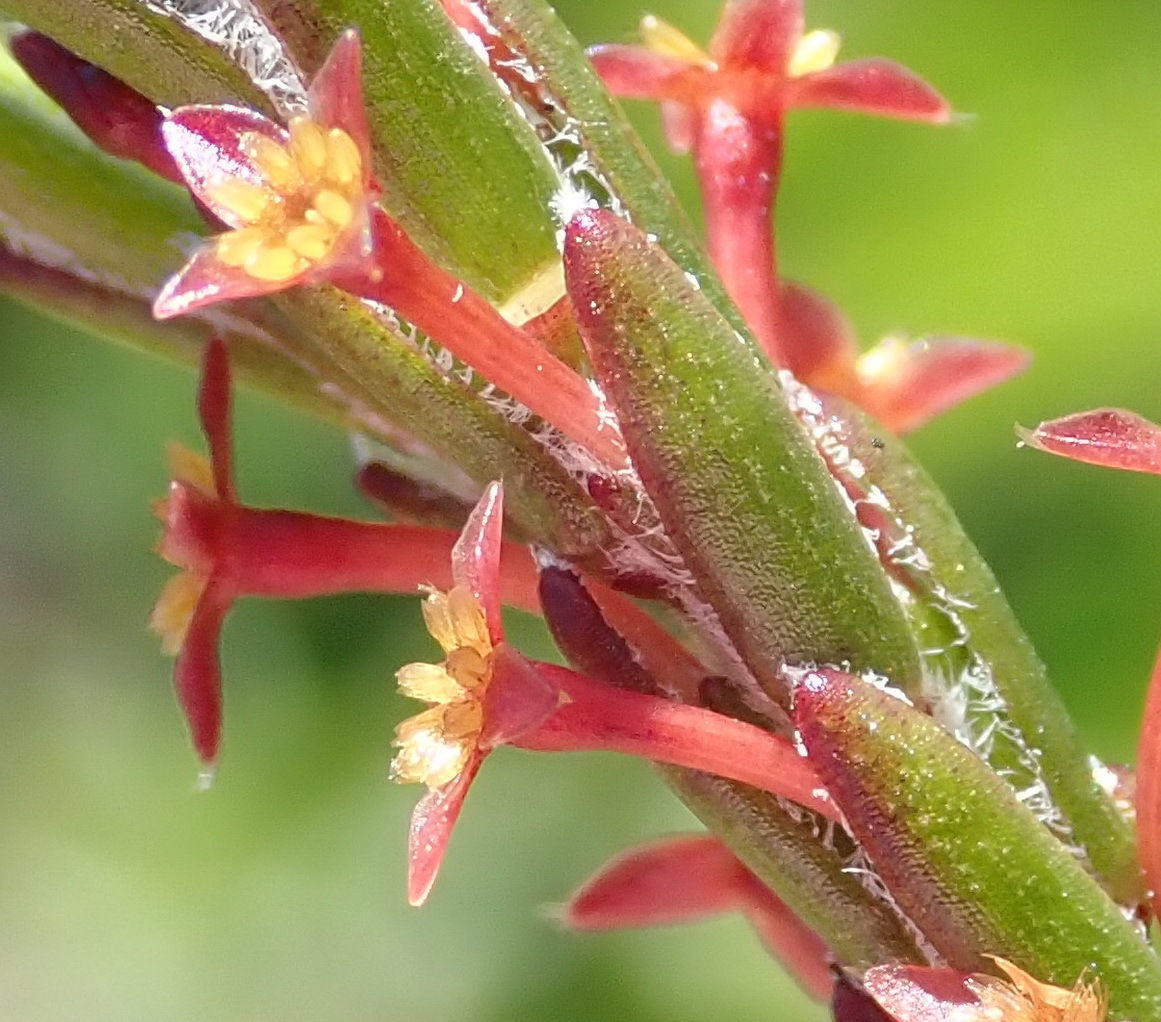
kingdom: Plantae
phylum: Tracheophyta
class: Magnoliopsida
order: Malvales
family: Thymelaeaceae
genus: Struthiola
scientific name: Struthiola parviflora
